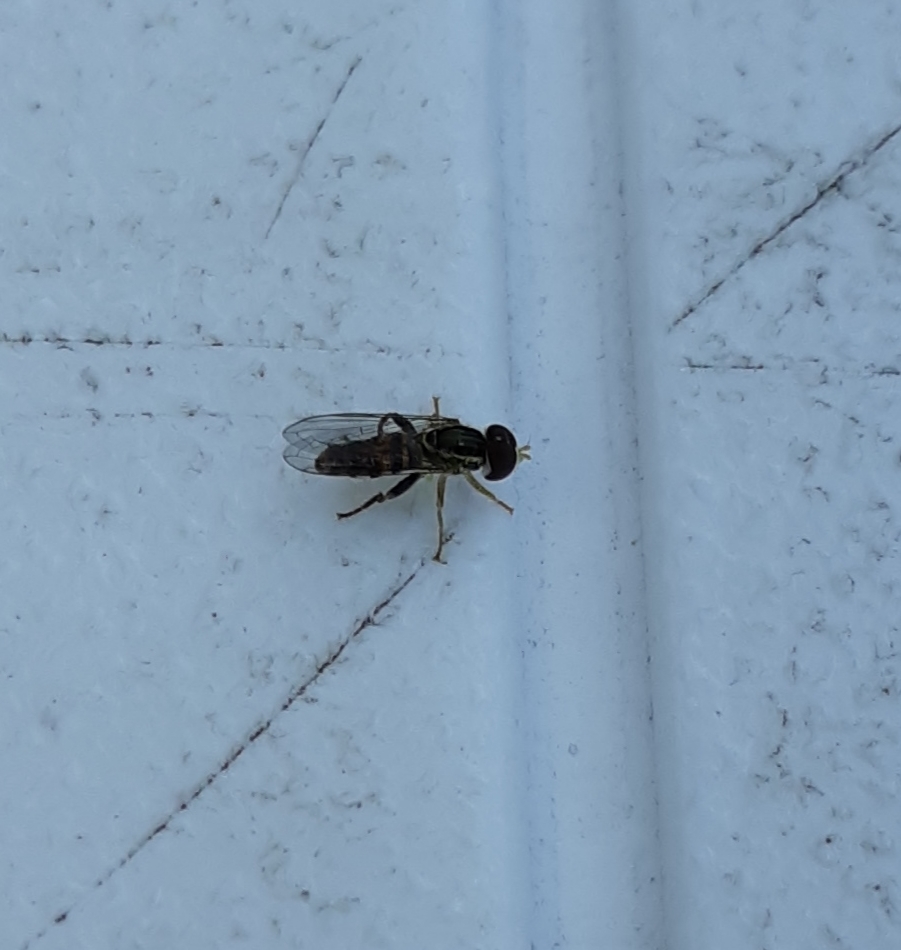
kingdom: Animalia
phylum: Arthropoda
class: Insecta
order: Diptera
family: Syrphidae
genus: Toxomerus
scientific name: Toxomerus geminatus
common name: Eastern calligrapher
